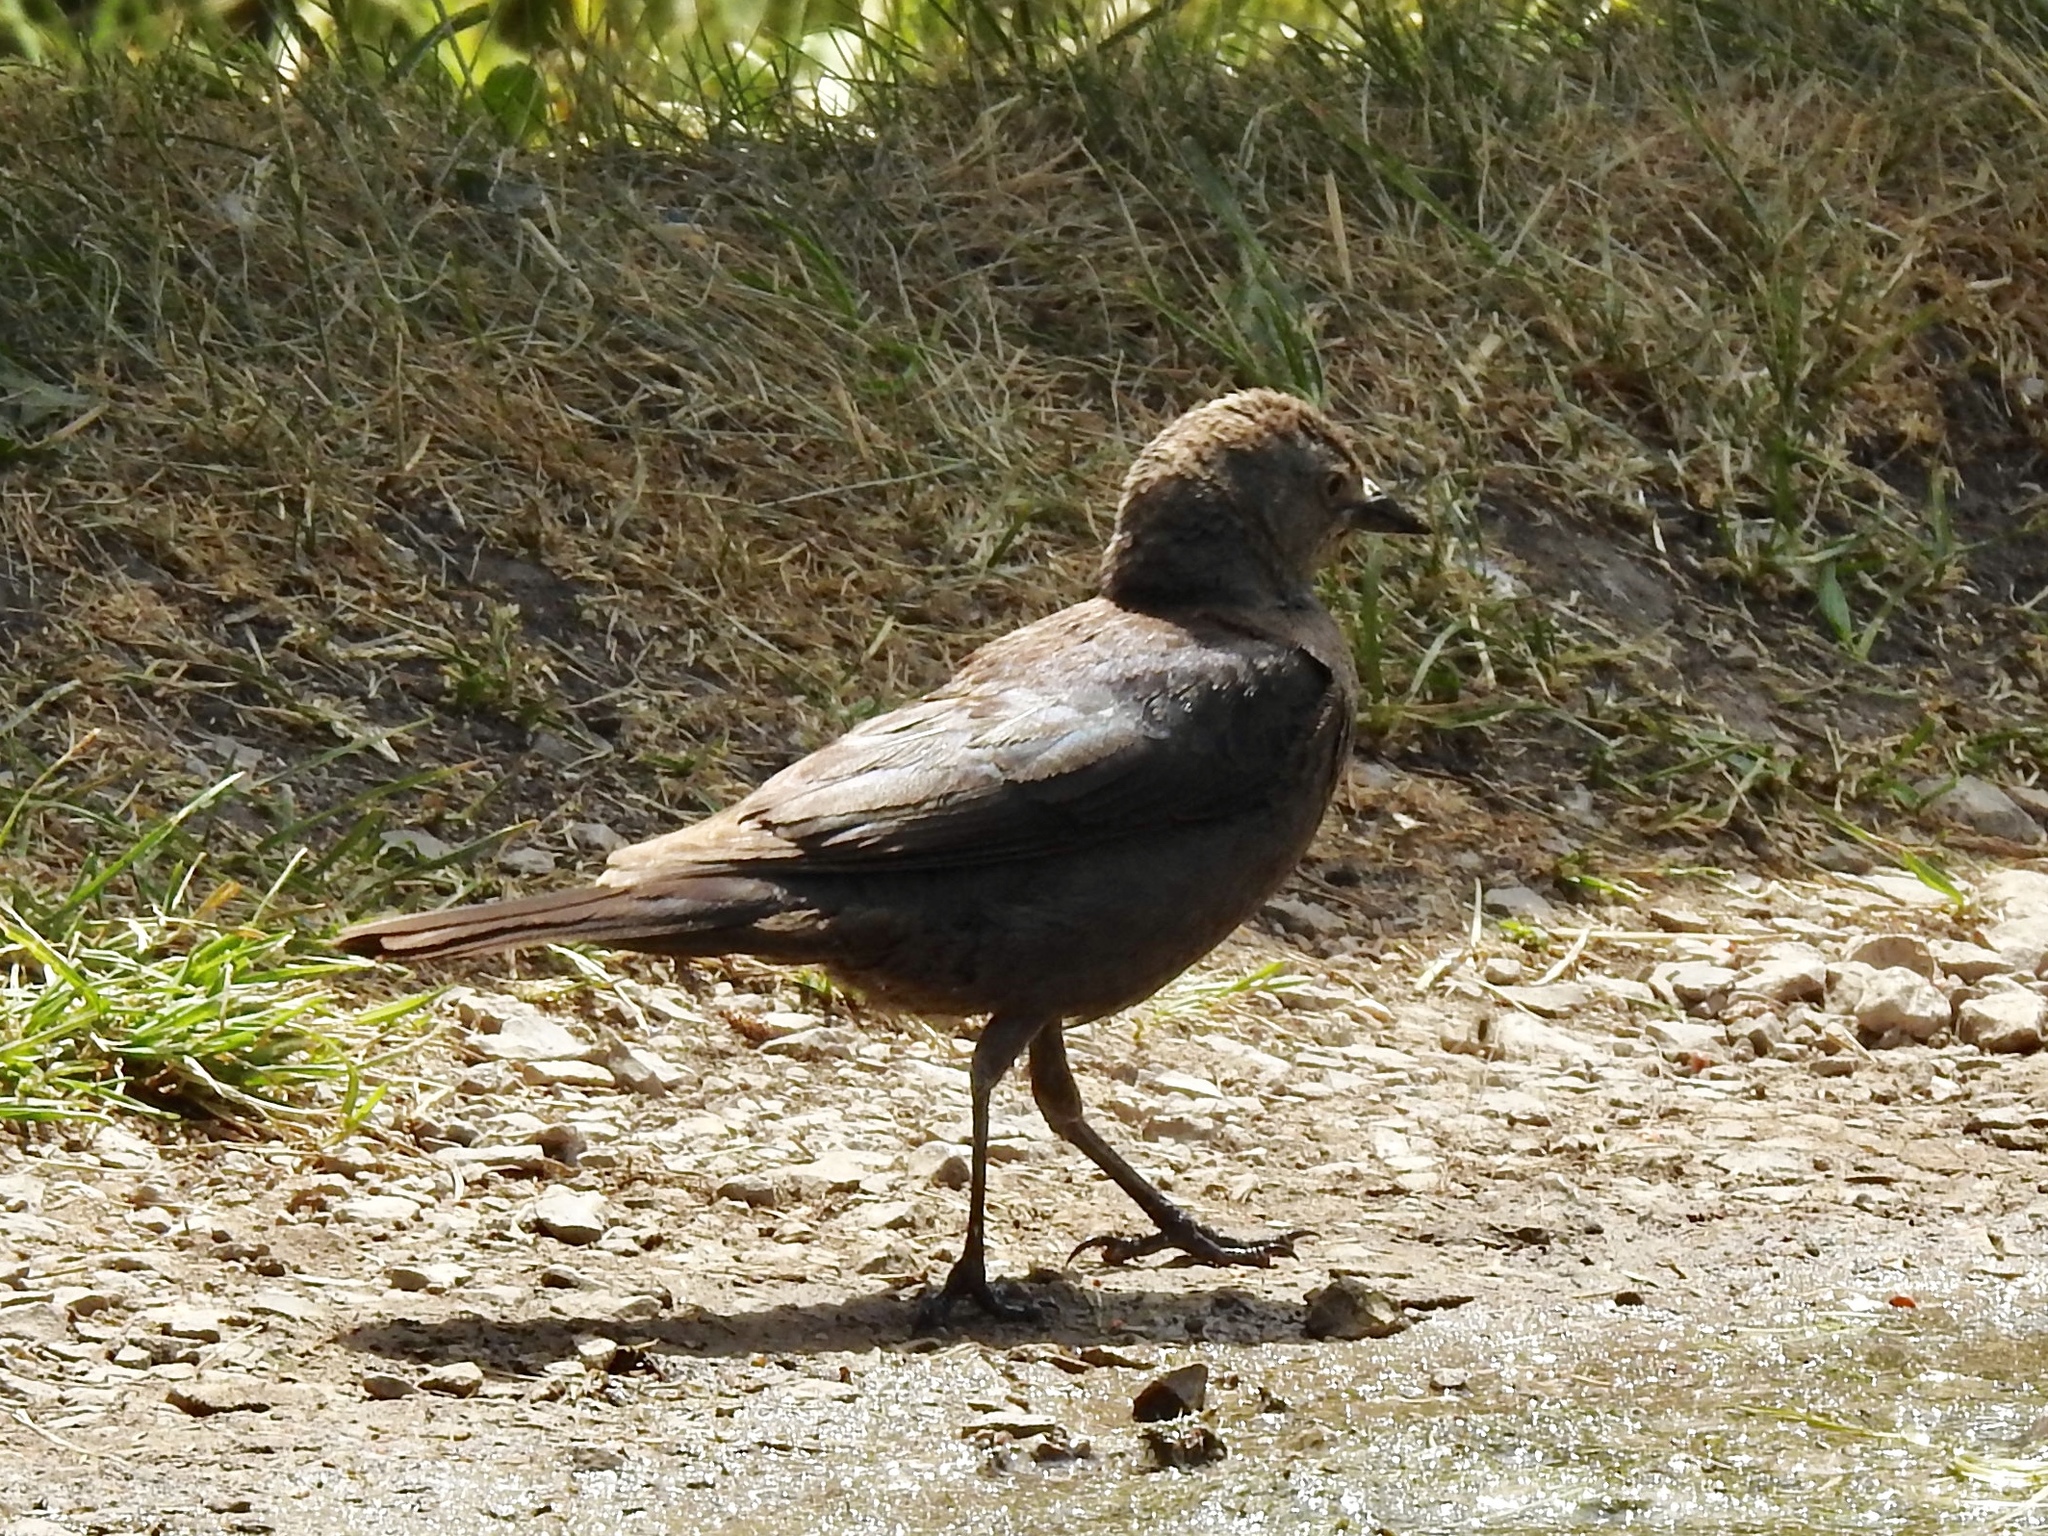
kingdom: Animalia
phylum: Chordata
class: Aves
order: Passeriformes
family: Icteridae
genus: Euphagus
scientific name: Euphagus cyanocephalus
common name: Brewer's blackbird
